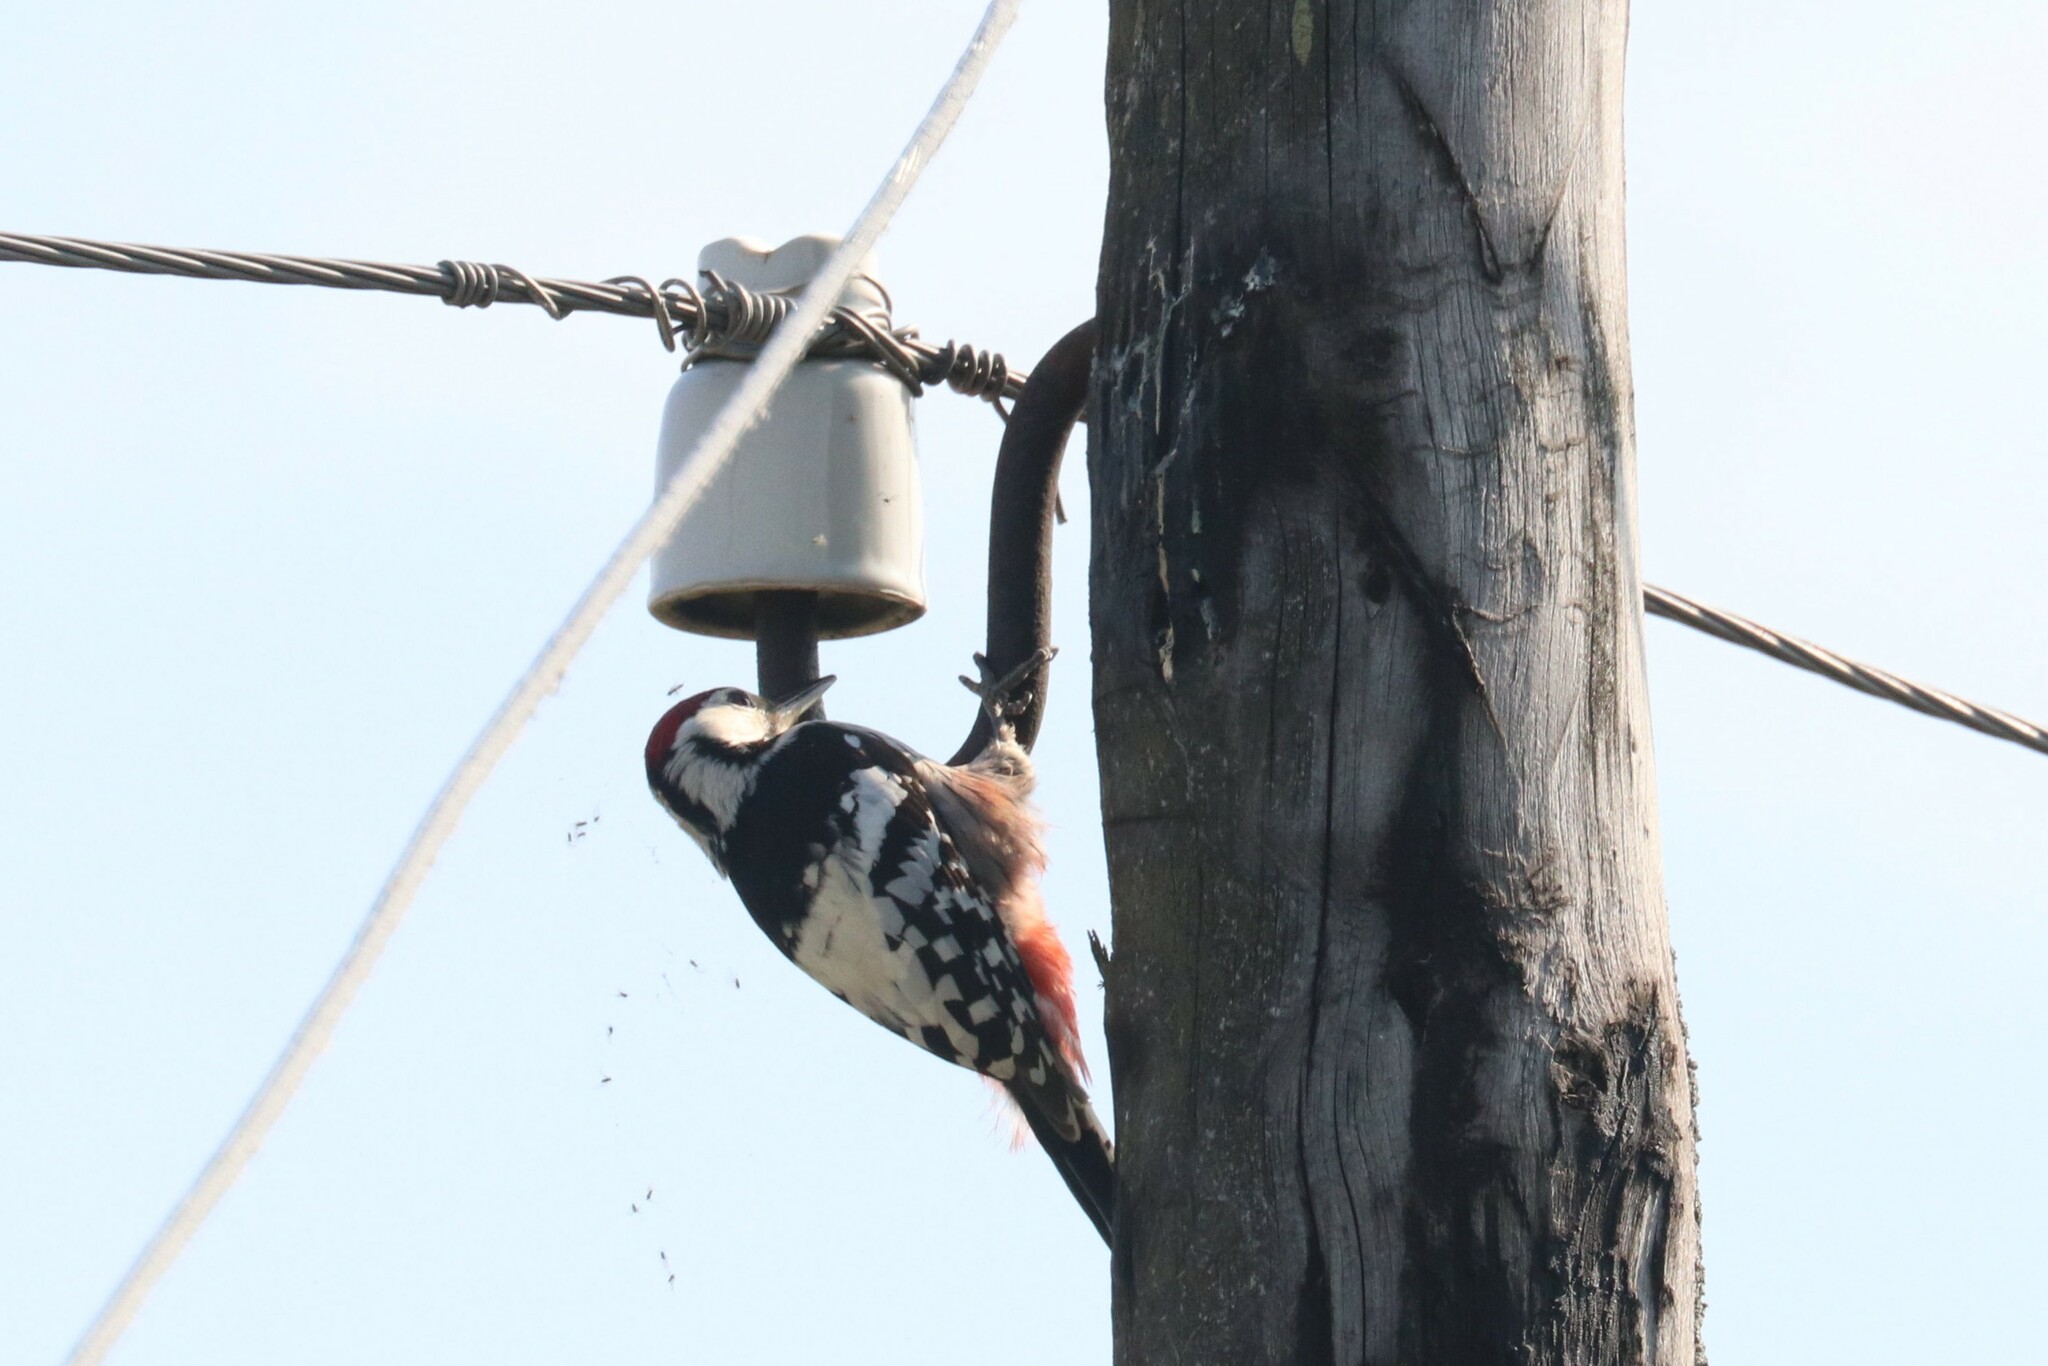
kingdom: Animalia
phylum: Chordata
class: Aves
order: Piciformes
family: Picidae
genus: Dendrocopos
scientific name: Dendrocopos leucotos
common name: White-backed woodpecker
